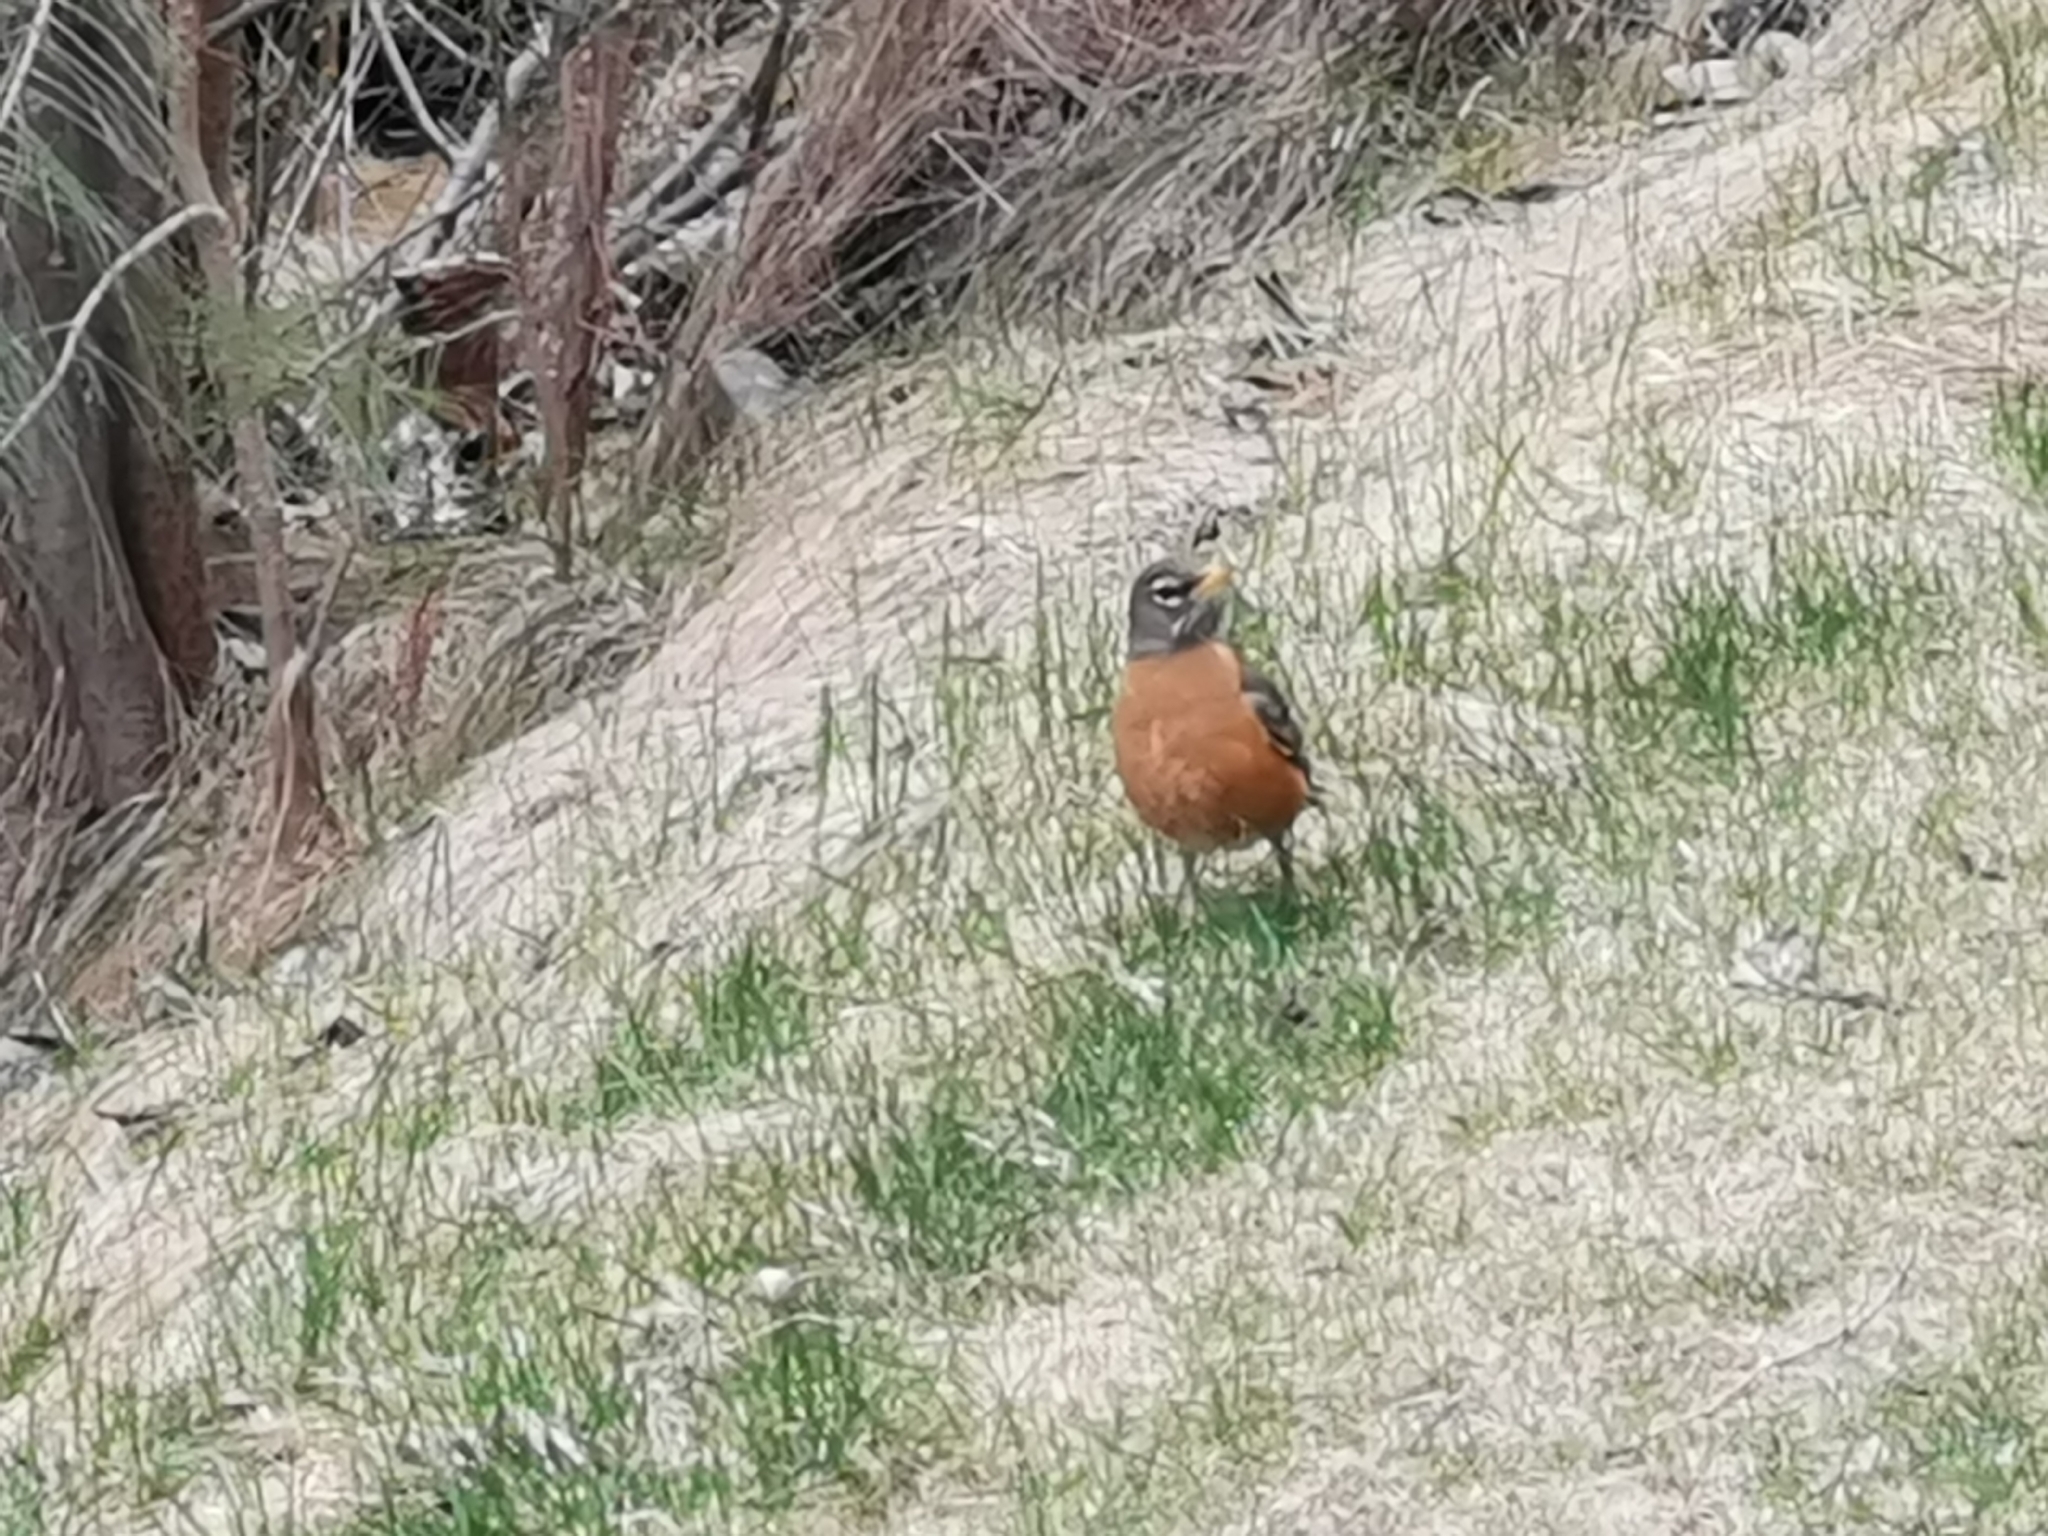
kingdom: Animalia
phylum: Chordata
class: Aves
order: Passeriformes
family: Turdidae
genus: Turdus
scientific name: Turdus migratorius
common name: American robin
